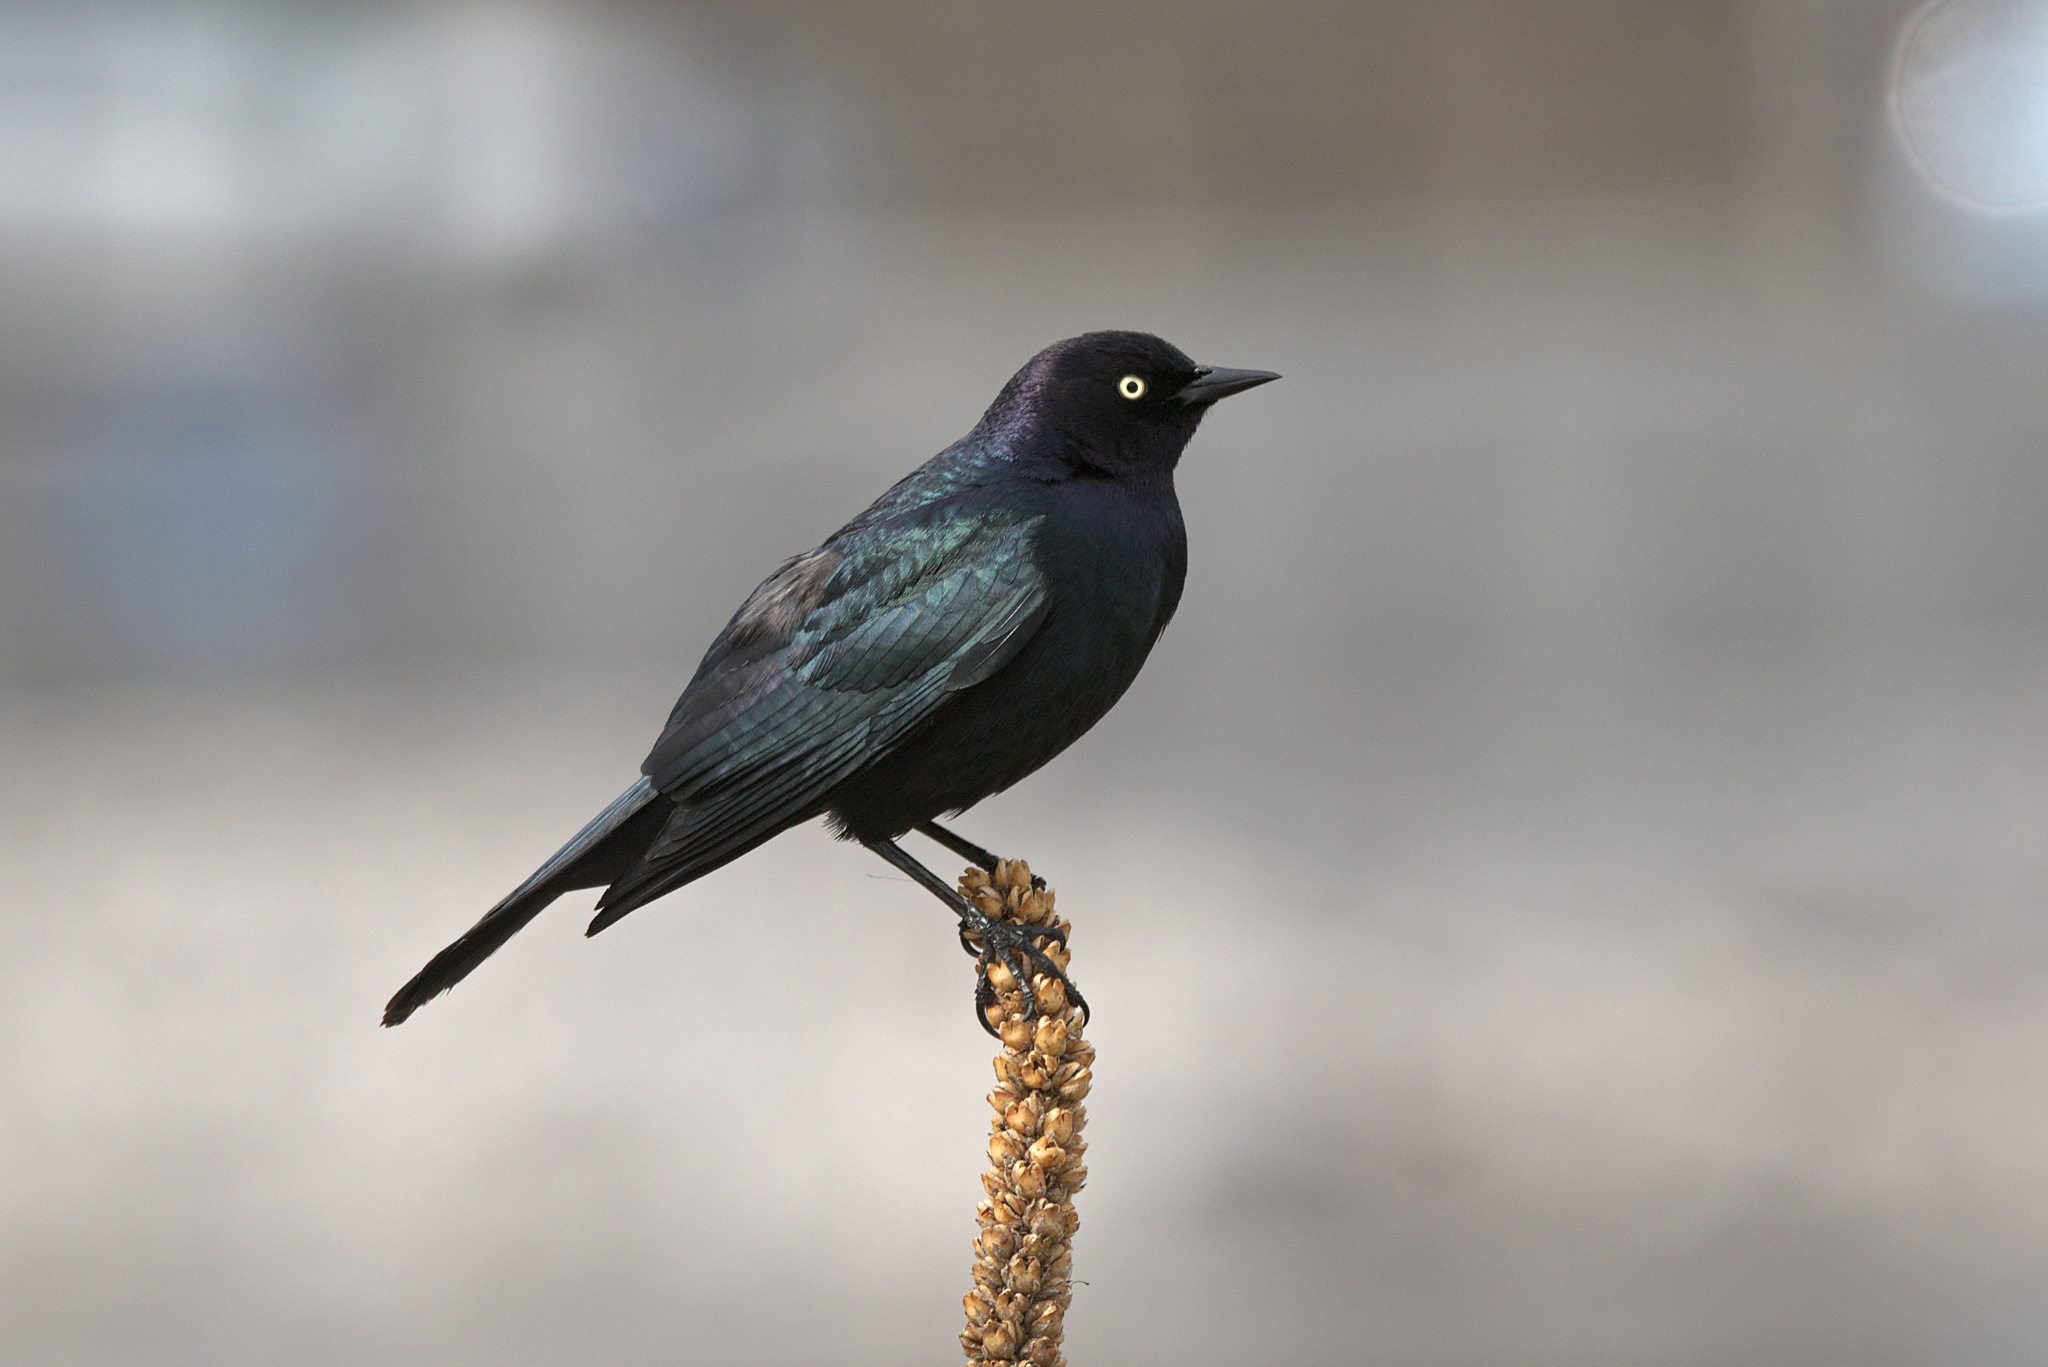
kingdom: Animalia
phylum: Chordata
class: Aves
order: Passeriformes
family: Icteridae
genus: Euphagus
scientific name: Euphagus cyanocephalus
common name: Brewer's blackbird
